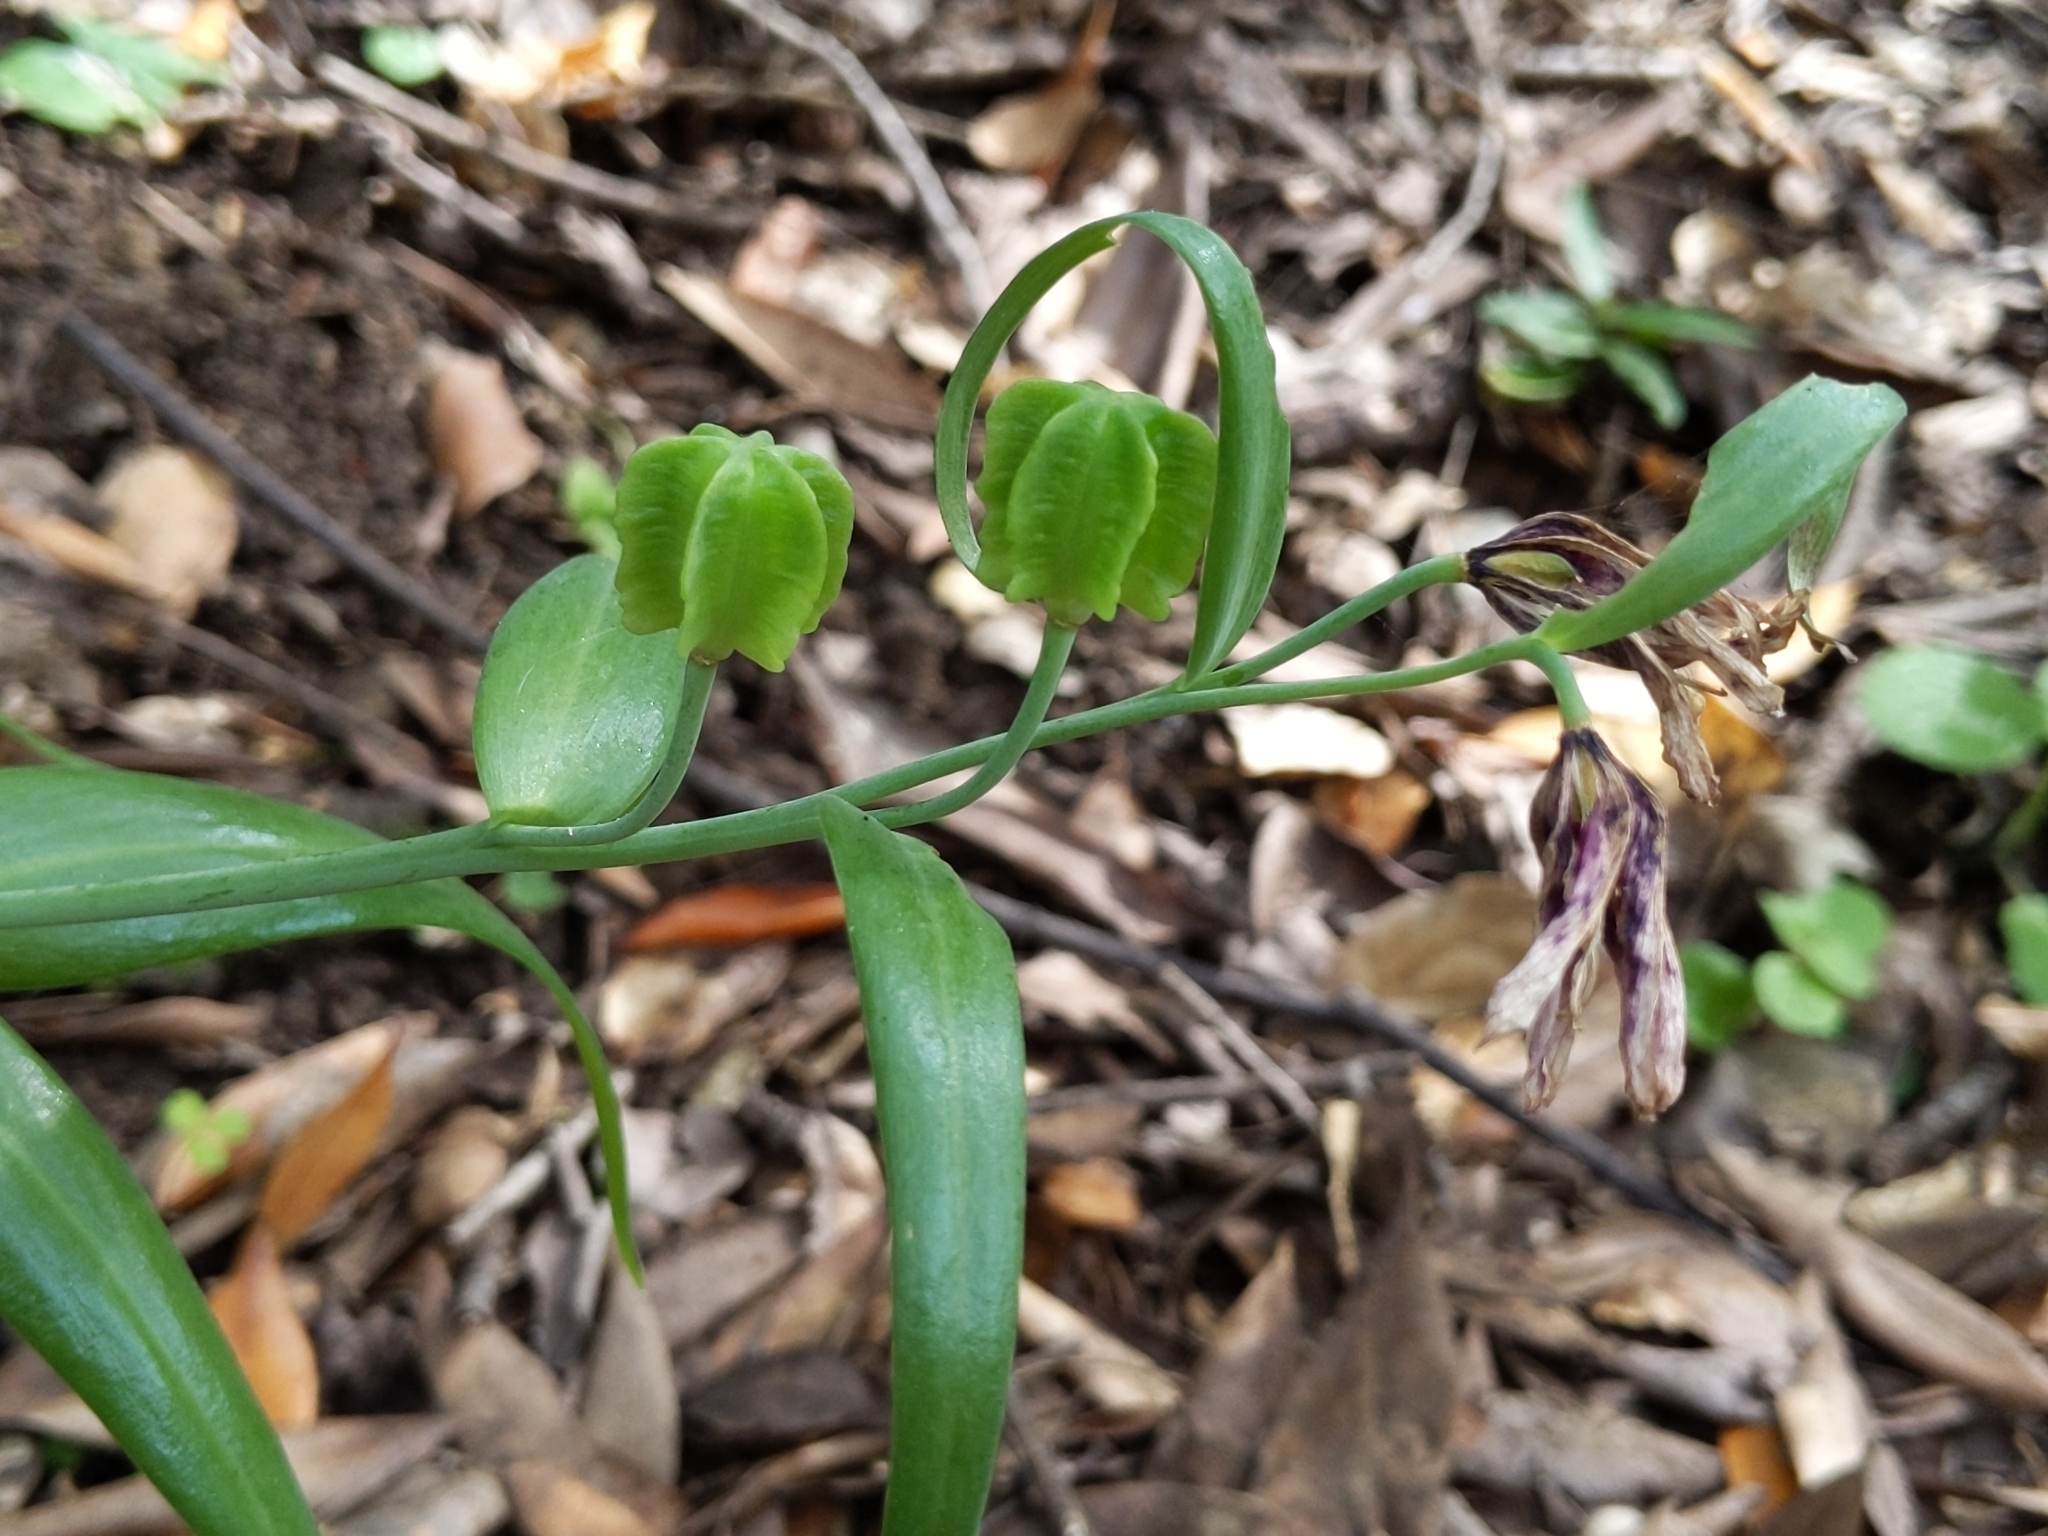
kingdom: Plantae
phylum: Tracheophyta
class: Liliopsida
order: Liliales
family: Liliaceae
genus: Fritillaria
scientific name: Fritillaria affinis
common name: Ojai fritillary
